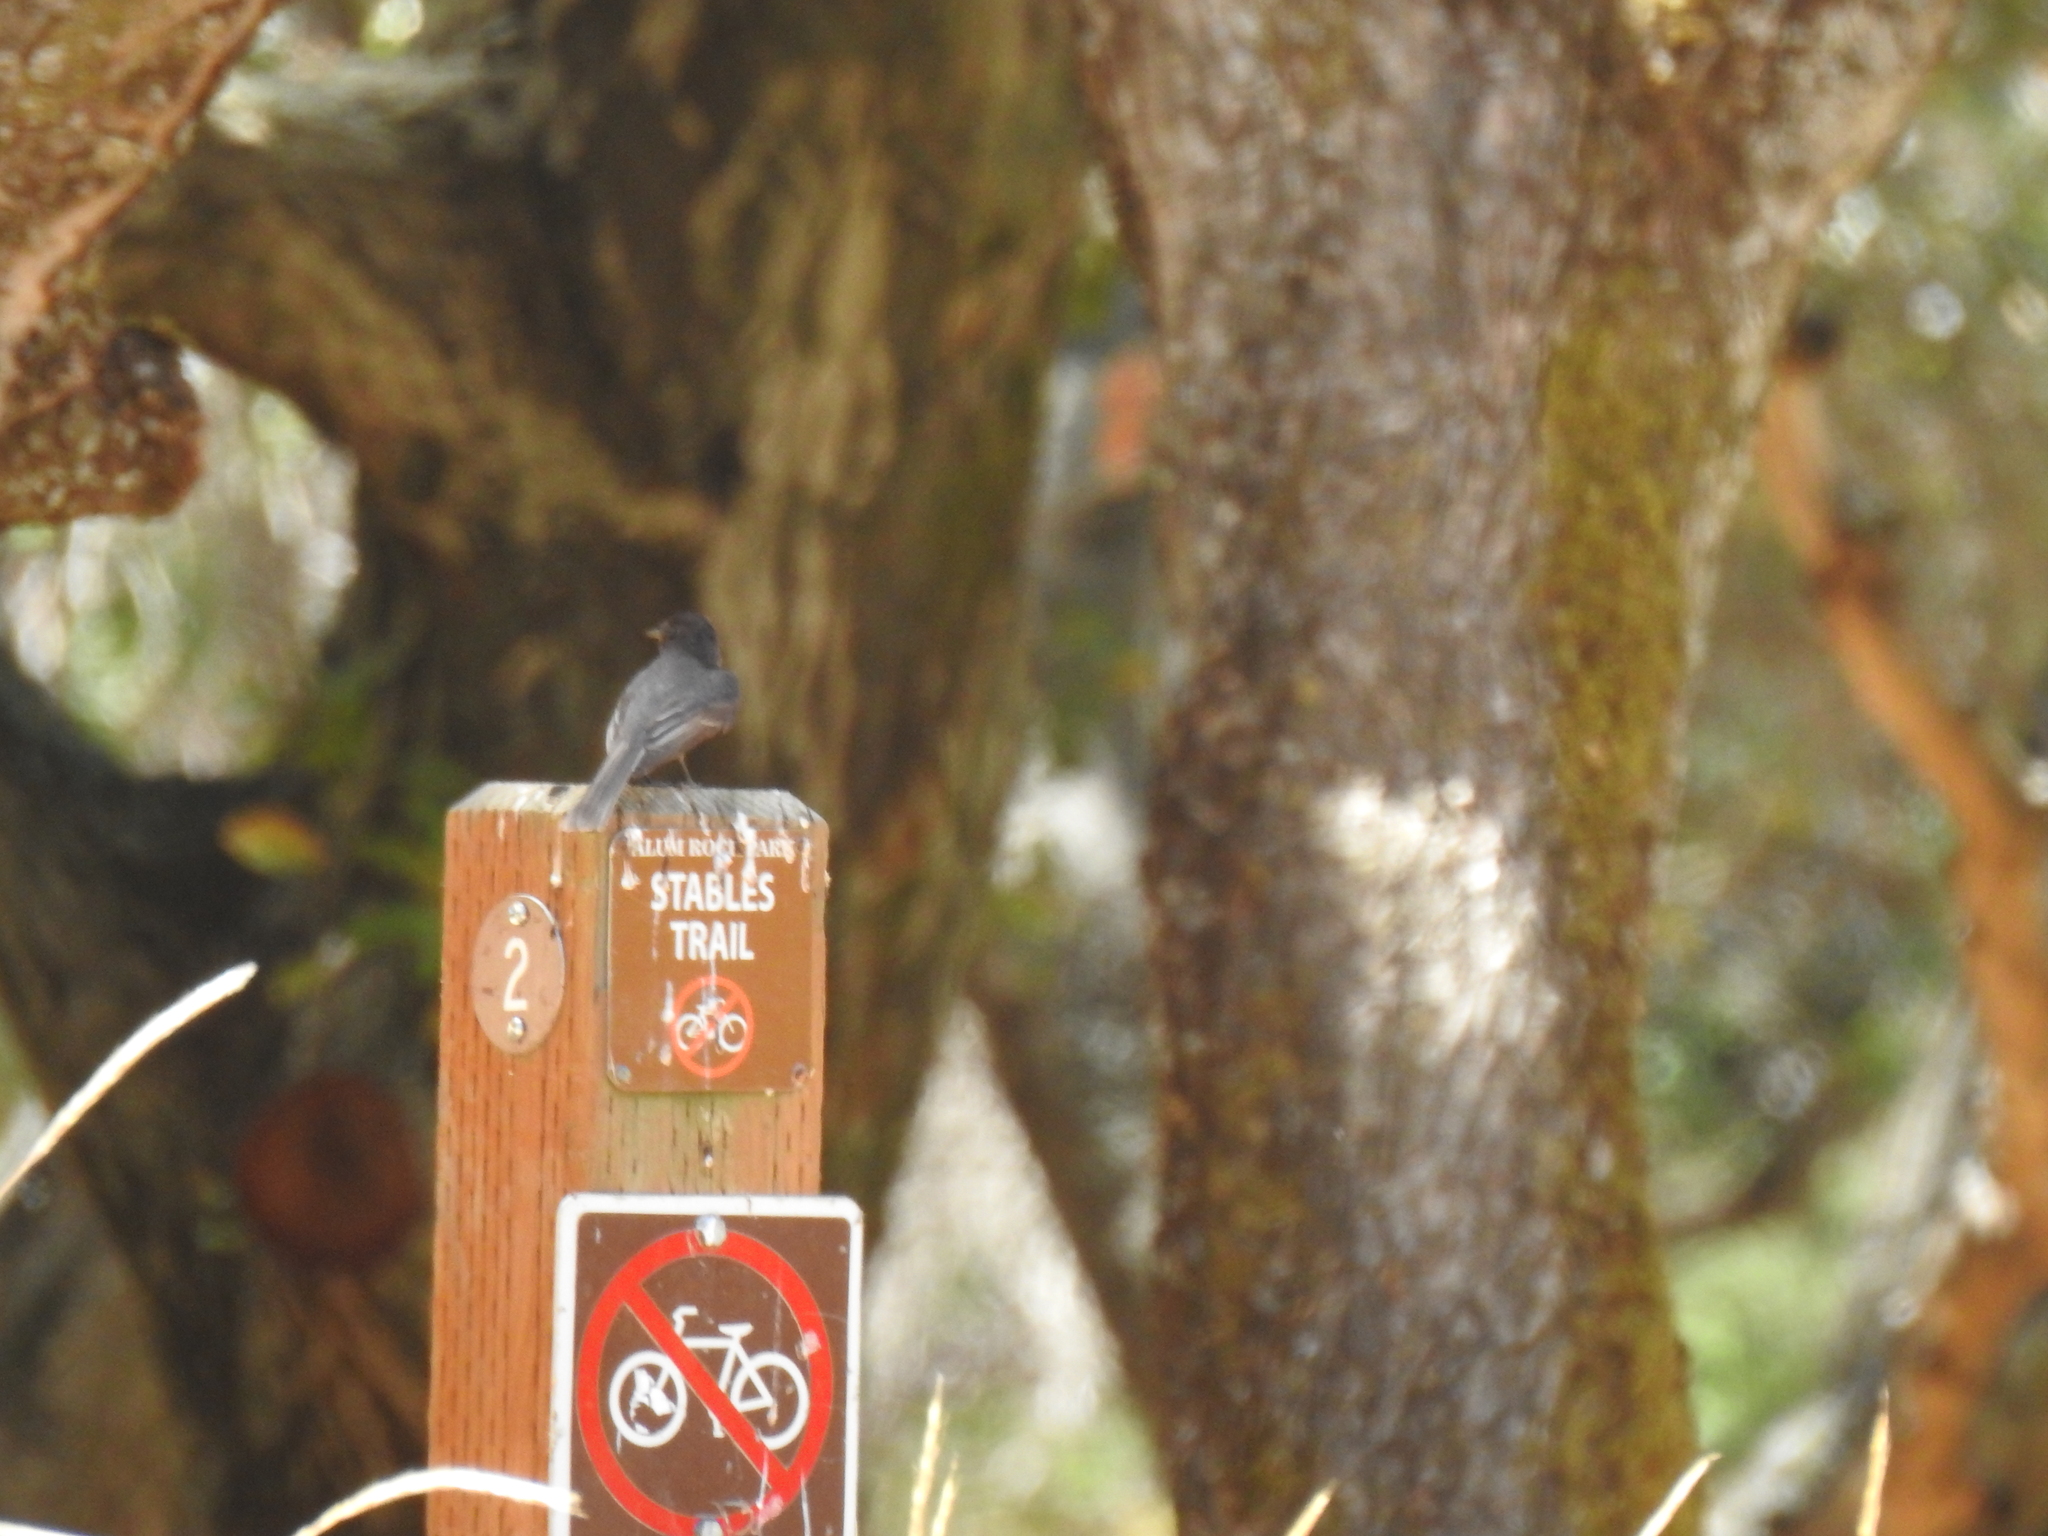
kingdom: Animalia
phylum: Chordata
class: Aves
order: Passeriformes
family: Tyrannidae
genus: Sayornis
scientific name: Sayornis nigricans
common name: Black phoebe
